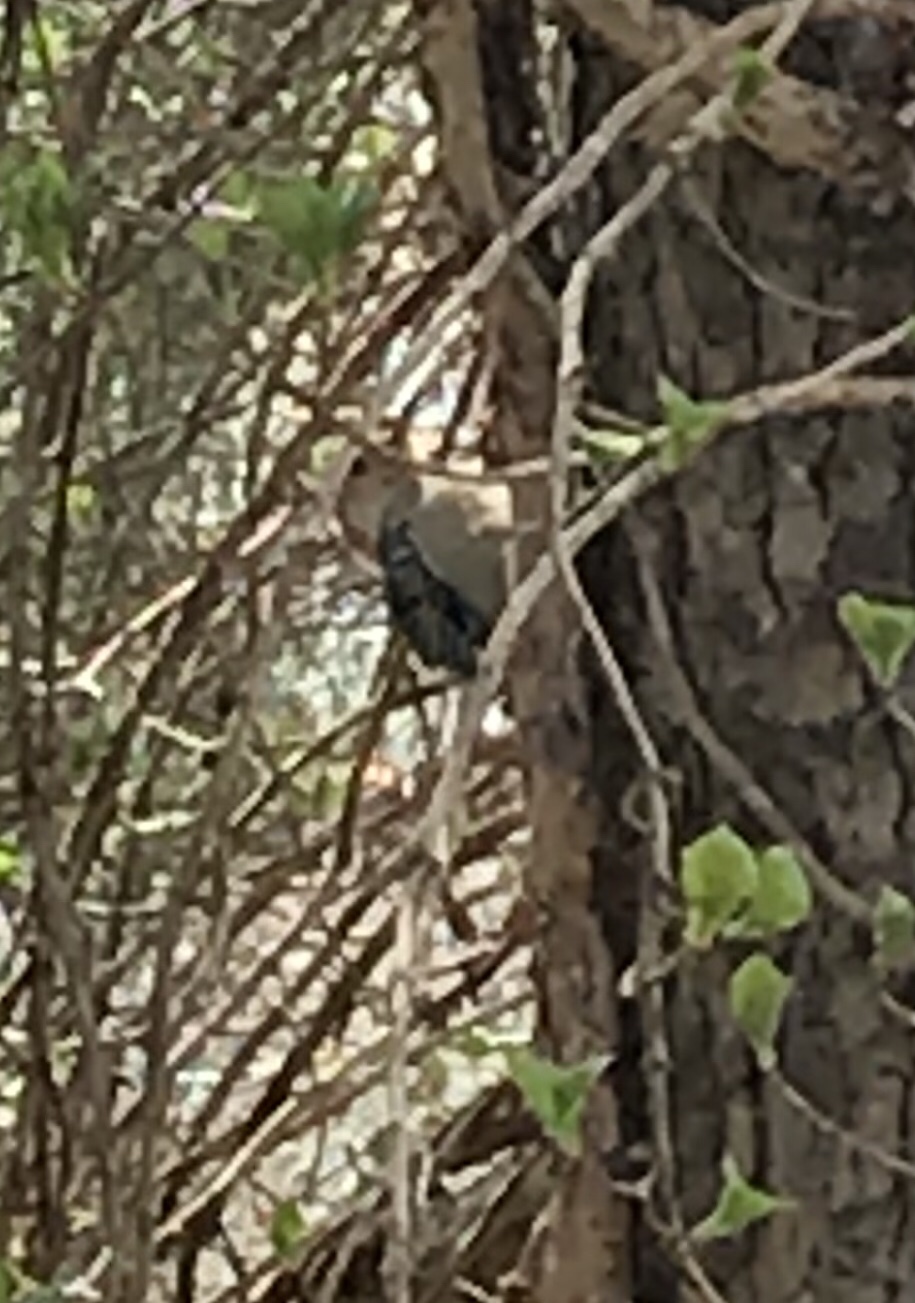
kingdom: Animalia
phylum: Chordata
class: Aves
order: Piciformes
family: Picidae
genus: Melanerpes
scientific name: Melanerpes carolinus
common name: Red-bellied woodpecker
